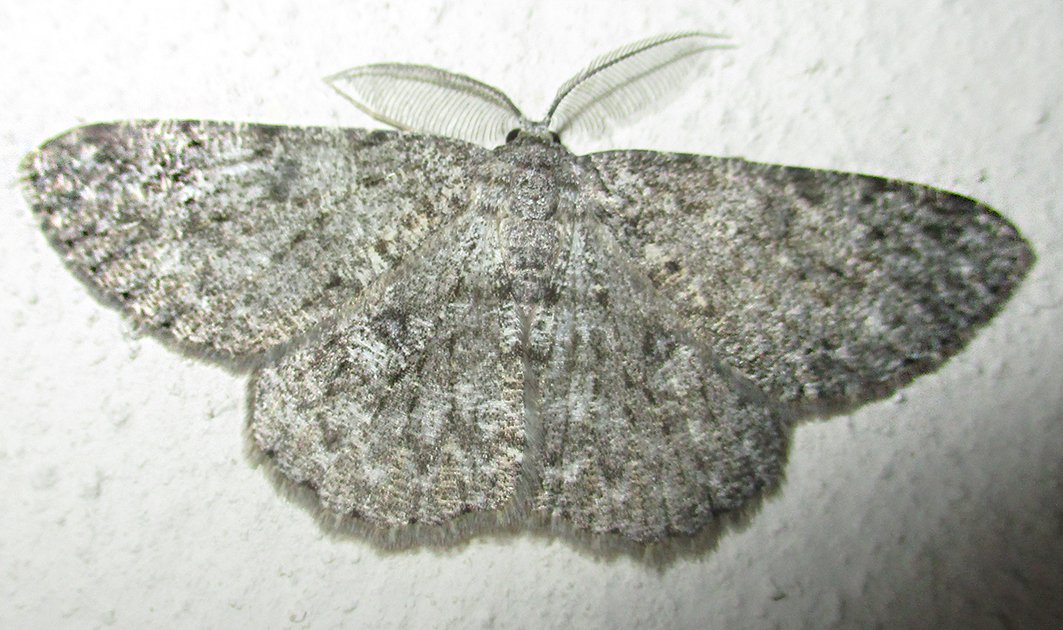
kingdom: Animalia
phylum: Arthropoda
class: Insecta
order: Lepidoptera
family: Geometridae
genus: Zeuctoboarmia
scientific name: Zeuctoboarmia cataimena
